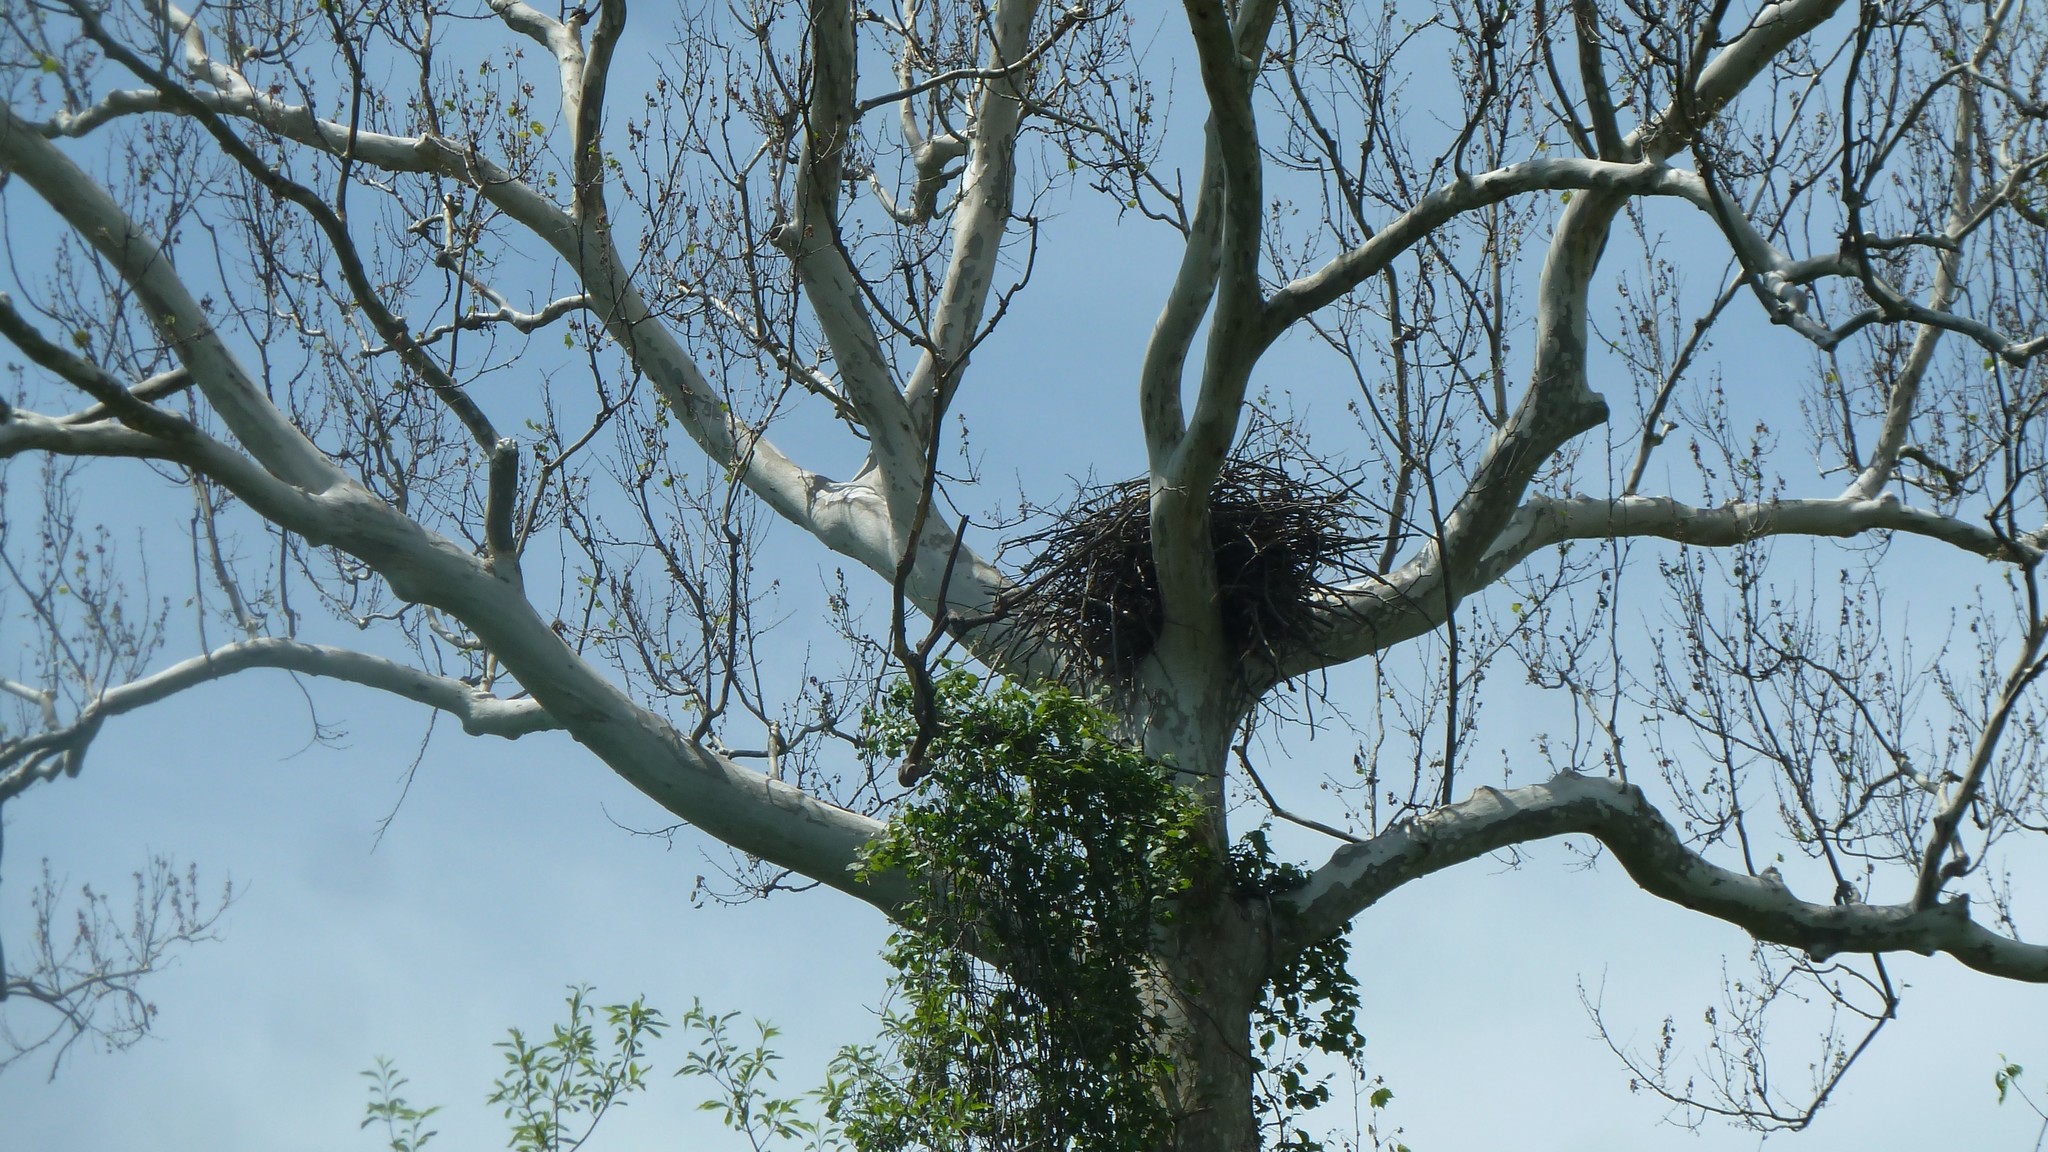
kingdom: Animalia
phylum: Chordata
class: Aves
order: Accipitriformes
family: Accipitridae
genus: Haliaeetus
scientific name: Haliaeetus leucocephalus
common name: Bald eagle
